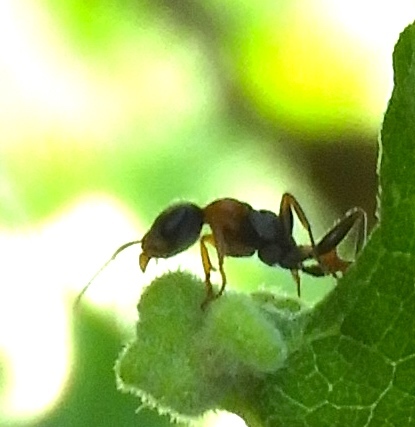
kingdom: Animalia
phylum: Arthropoda
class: Insecta
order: Hymenoptera
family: Formicidae
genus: Pseudomyrmex
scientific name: Pseudomyrmex gracilis
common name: Graceful twig ant
